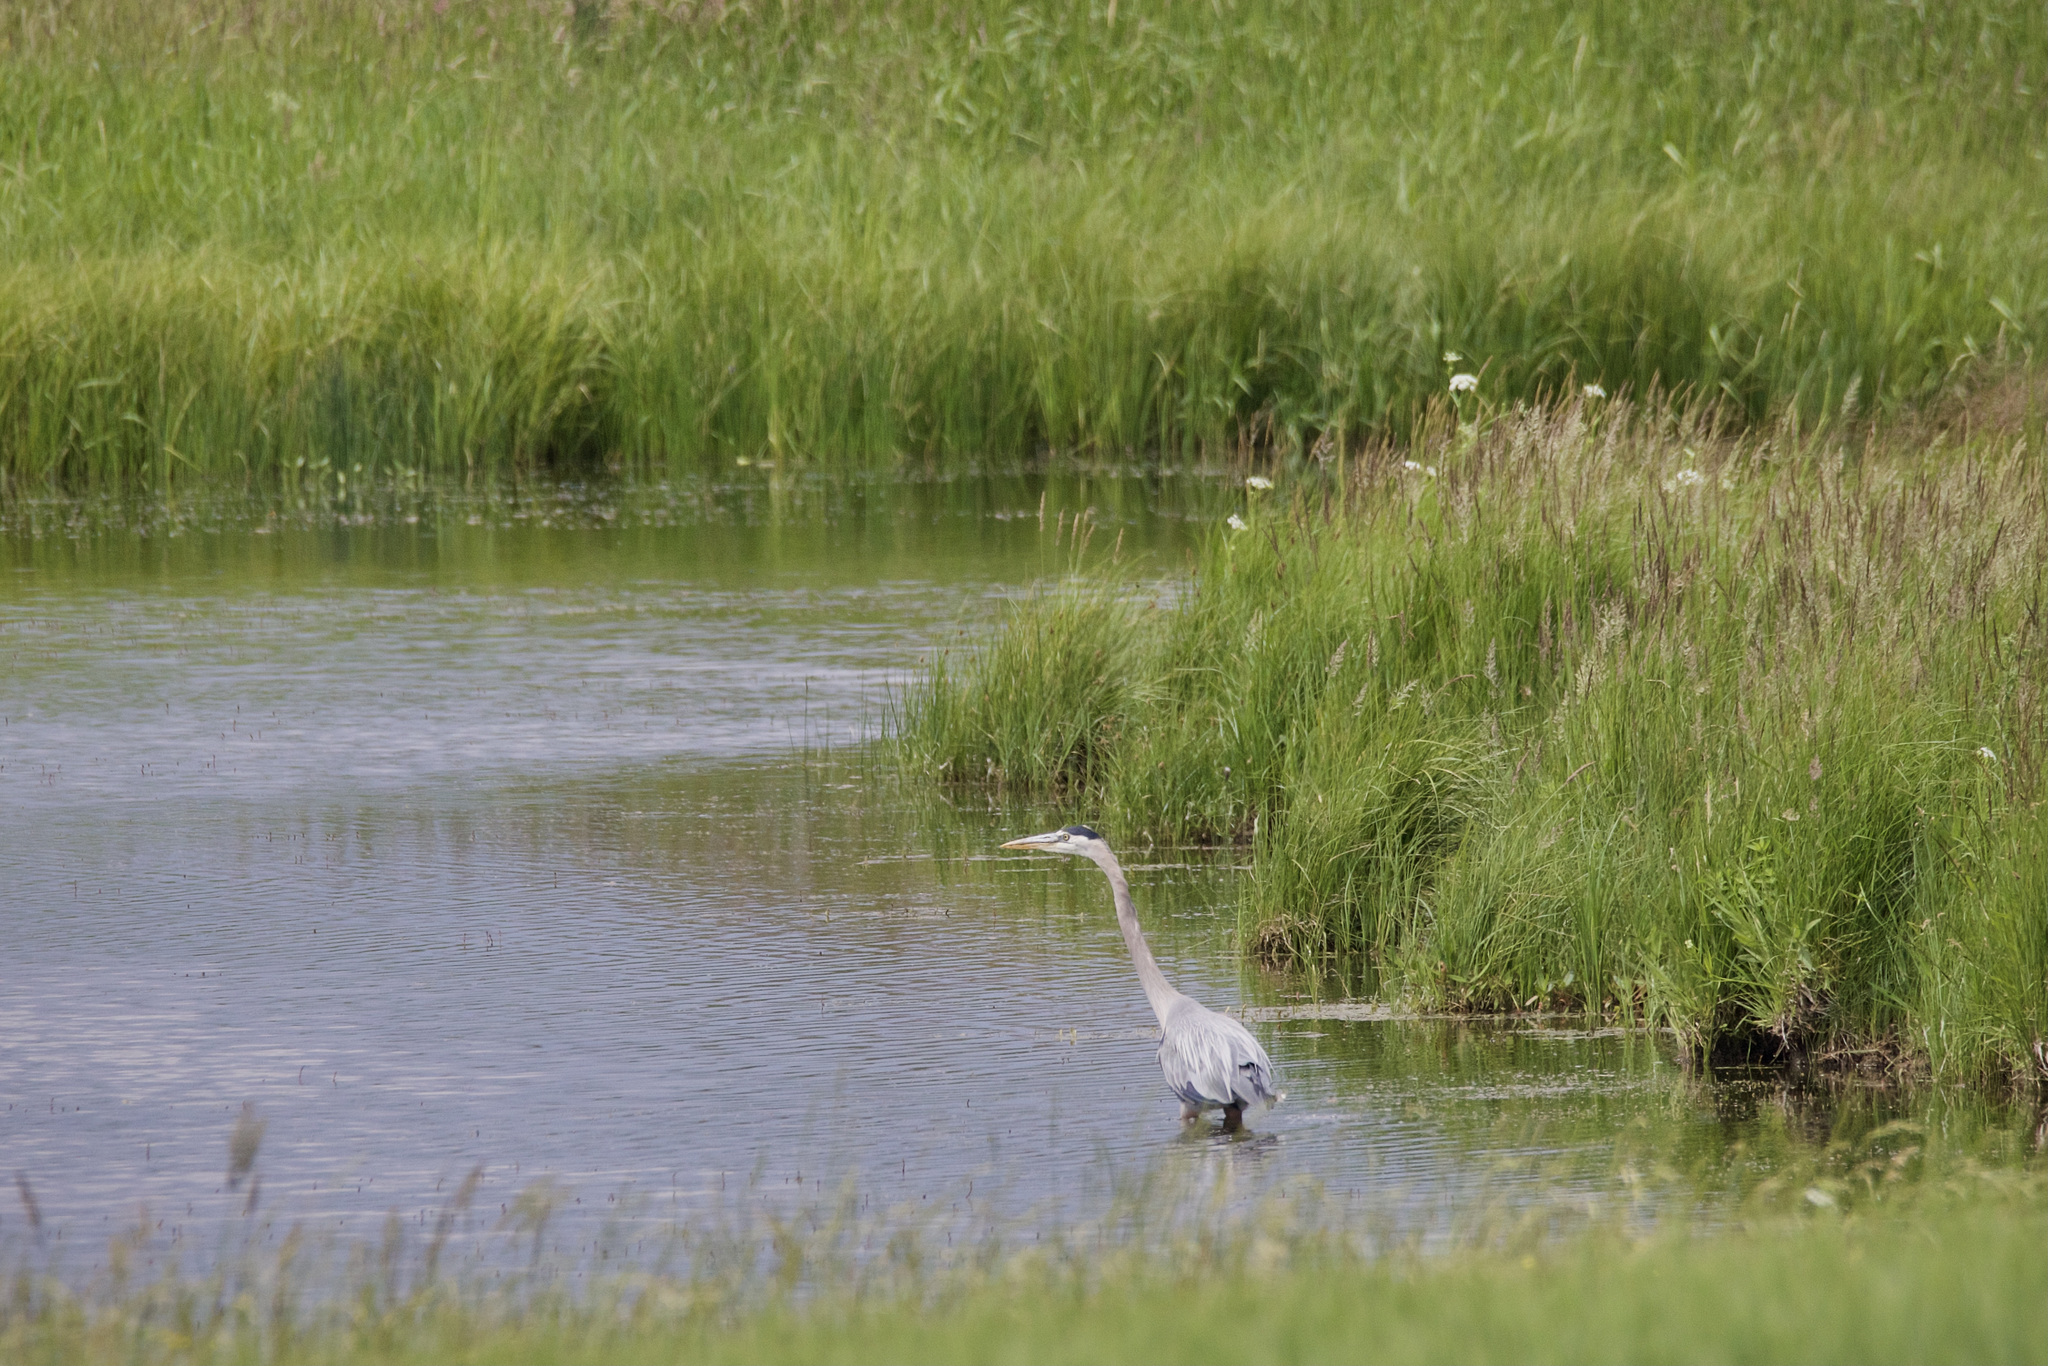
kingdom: Animalia
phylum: Chordata
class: Aves
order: Pelecaniformes
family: Ardeidae
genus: Ardea
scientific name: Ardea herodias
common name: Great blue heron
